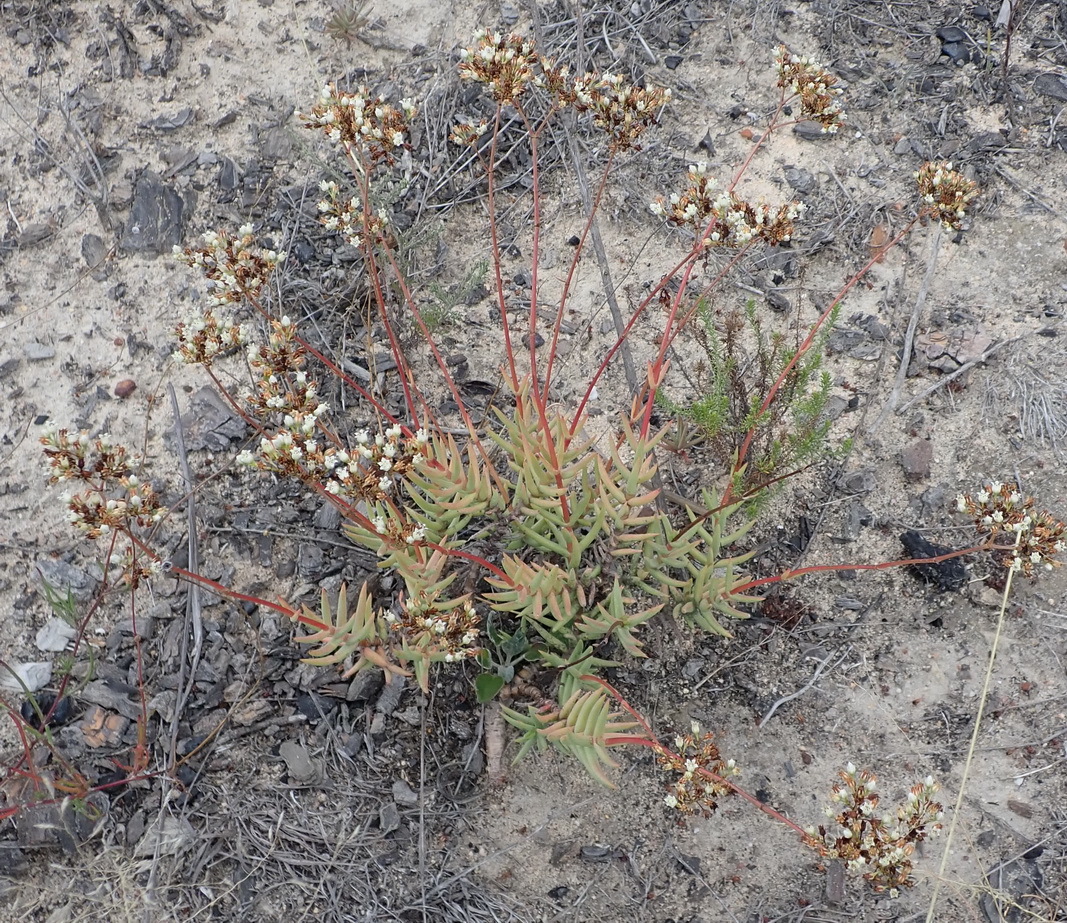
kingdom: Plantae
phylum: Tracheophyta
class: Magnoliopsida
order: Saxifragales
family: Crassulaceae
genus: Crassula
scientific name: Crassula tetragona
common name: Pygmyweed
